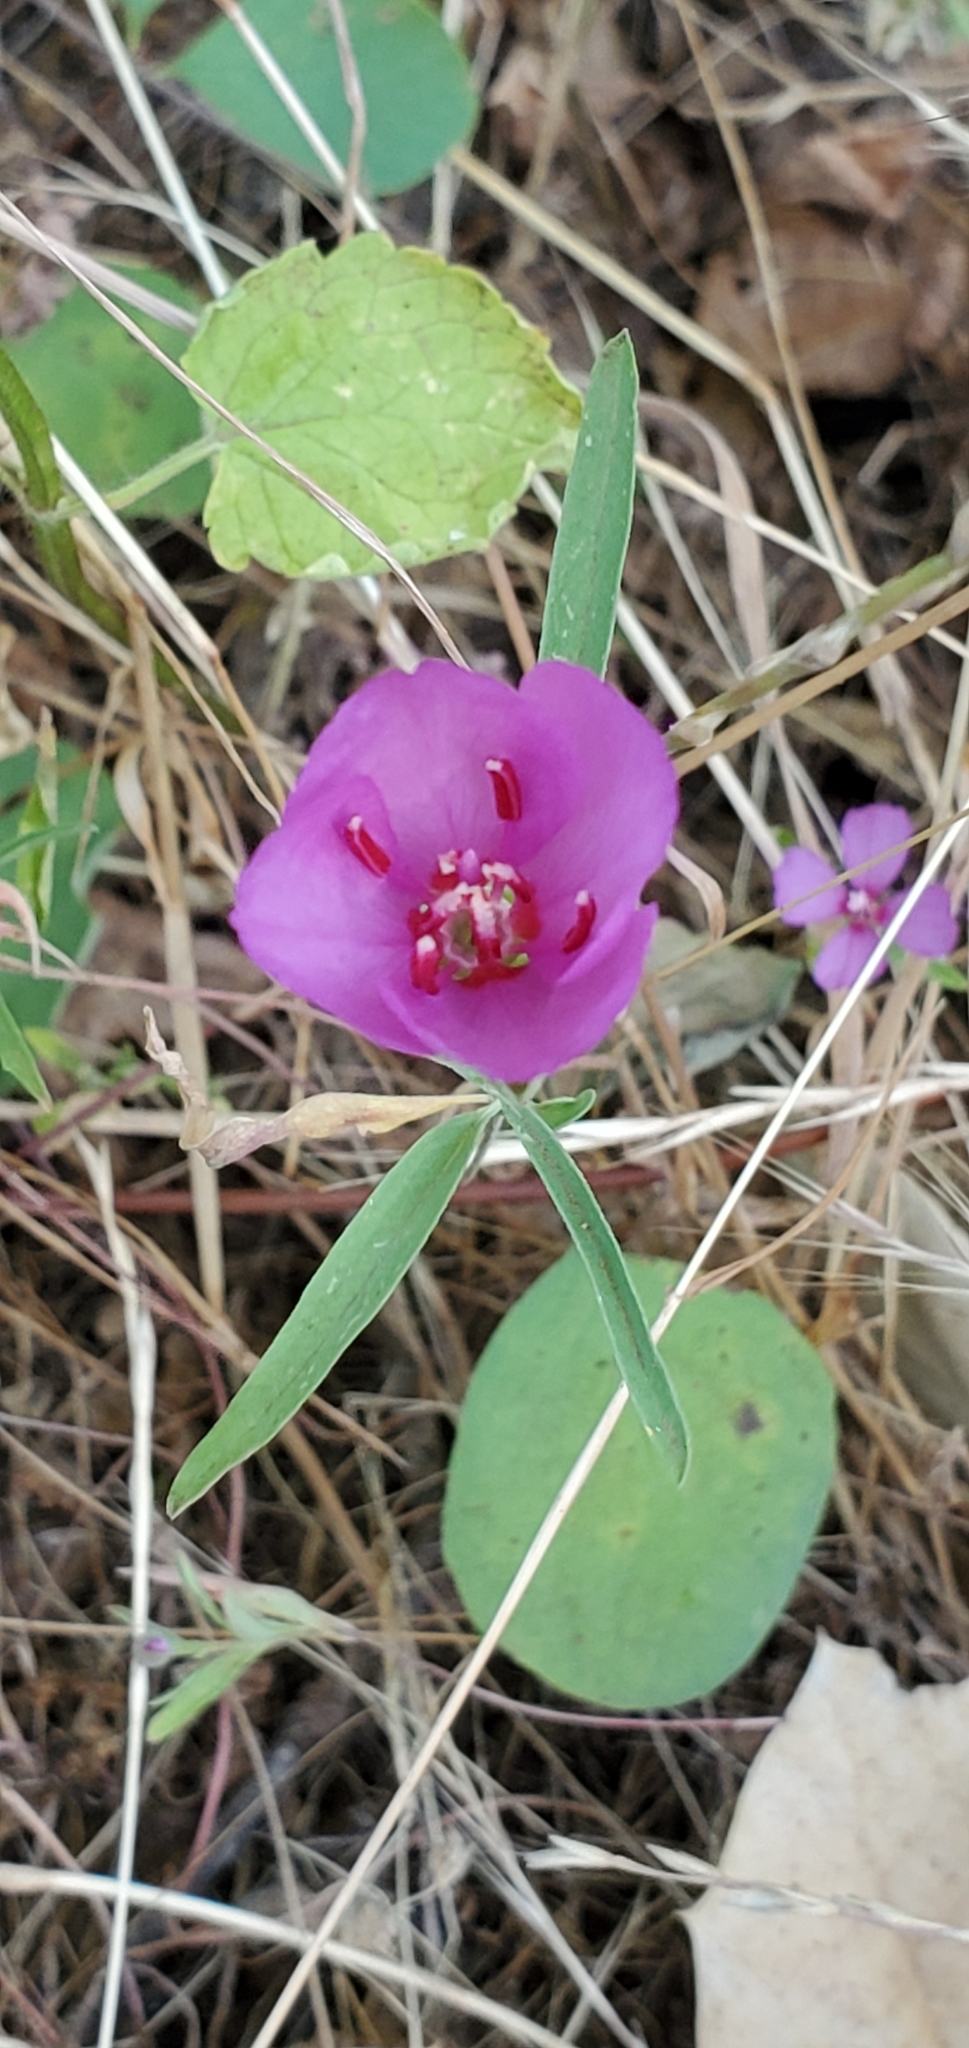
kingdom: Plantae
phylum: Tracheophyta
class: Magnoliopsida
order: Myrtales
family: Onagraceae
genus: Clarkia
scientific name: Clarkia rubicunda
